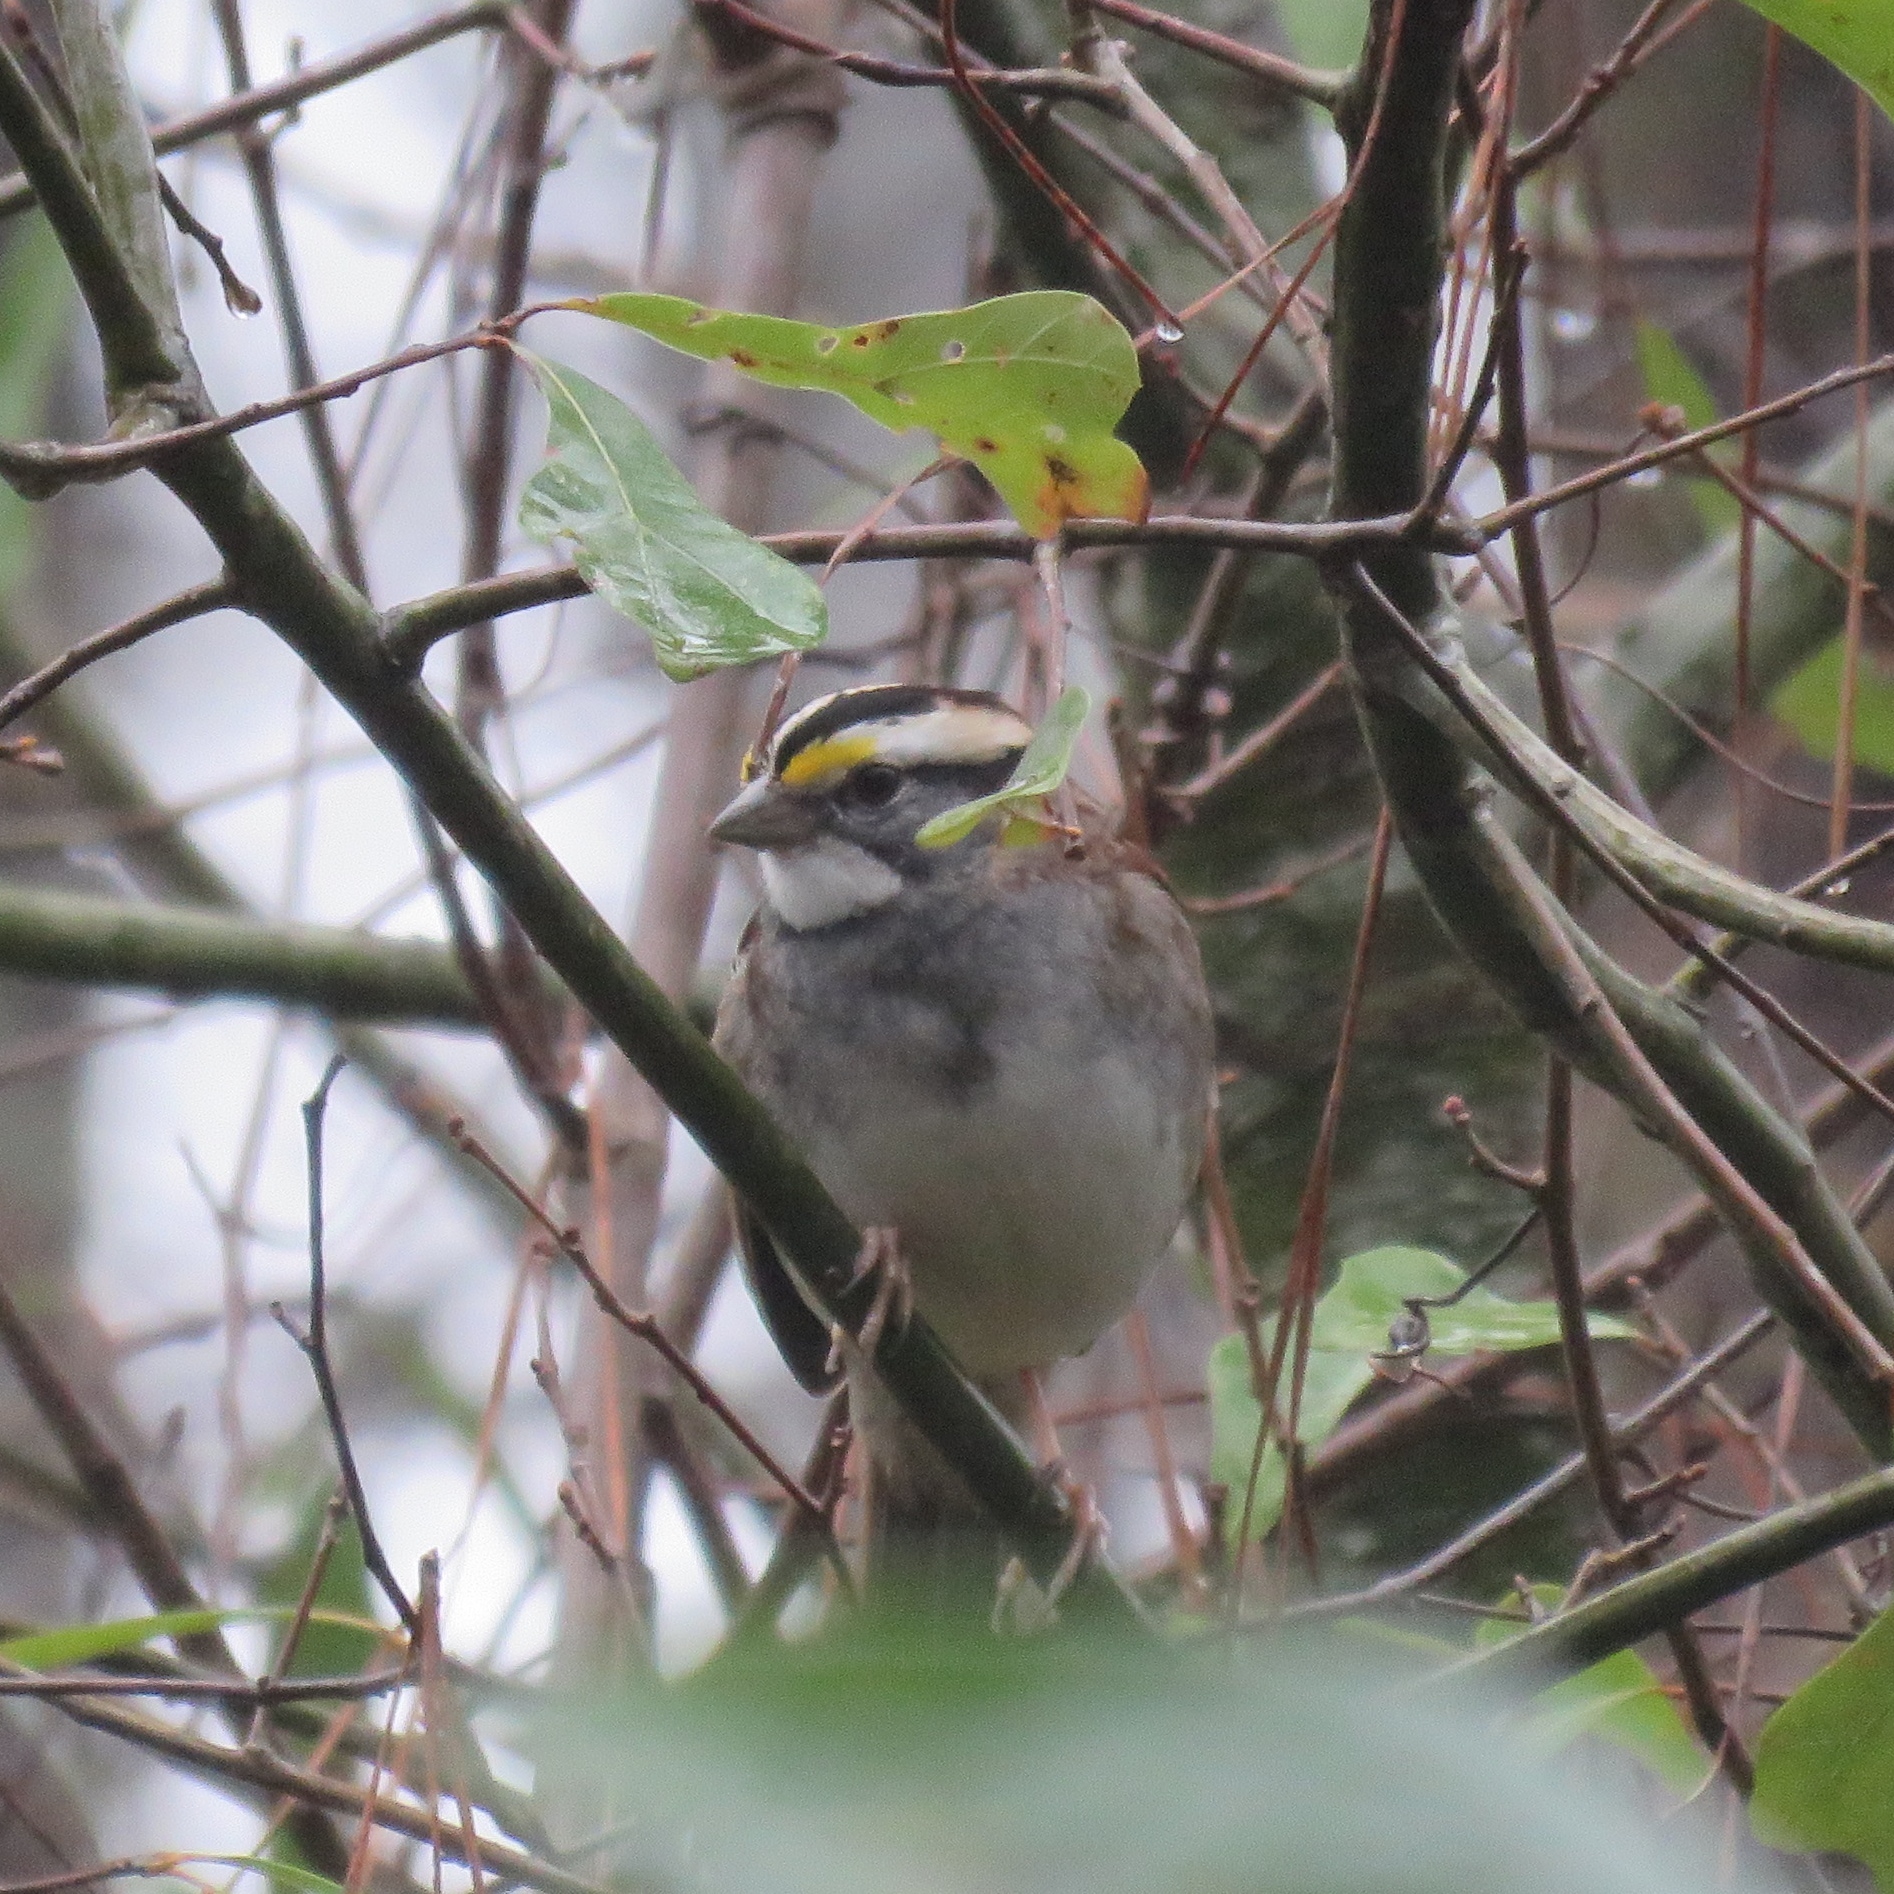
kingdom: Animalia
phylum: Chordata
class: Aves
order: Passeriformes
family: Passerellidae
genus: Zonotrichia
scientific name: Zonotrichia albicollis
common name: White-throated sparrow
